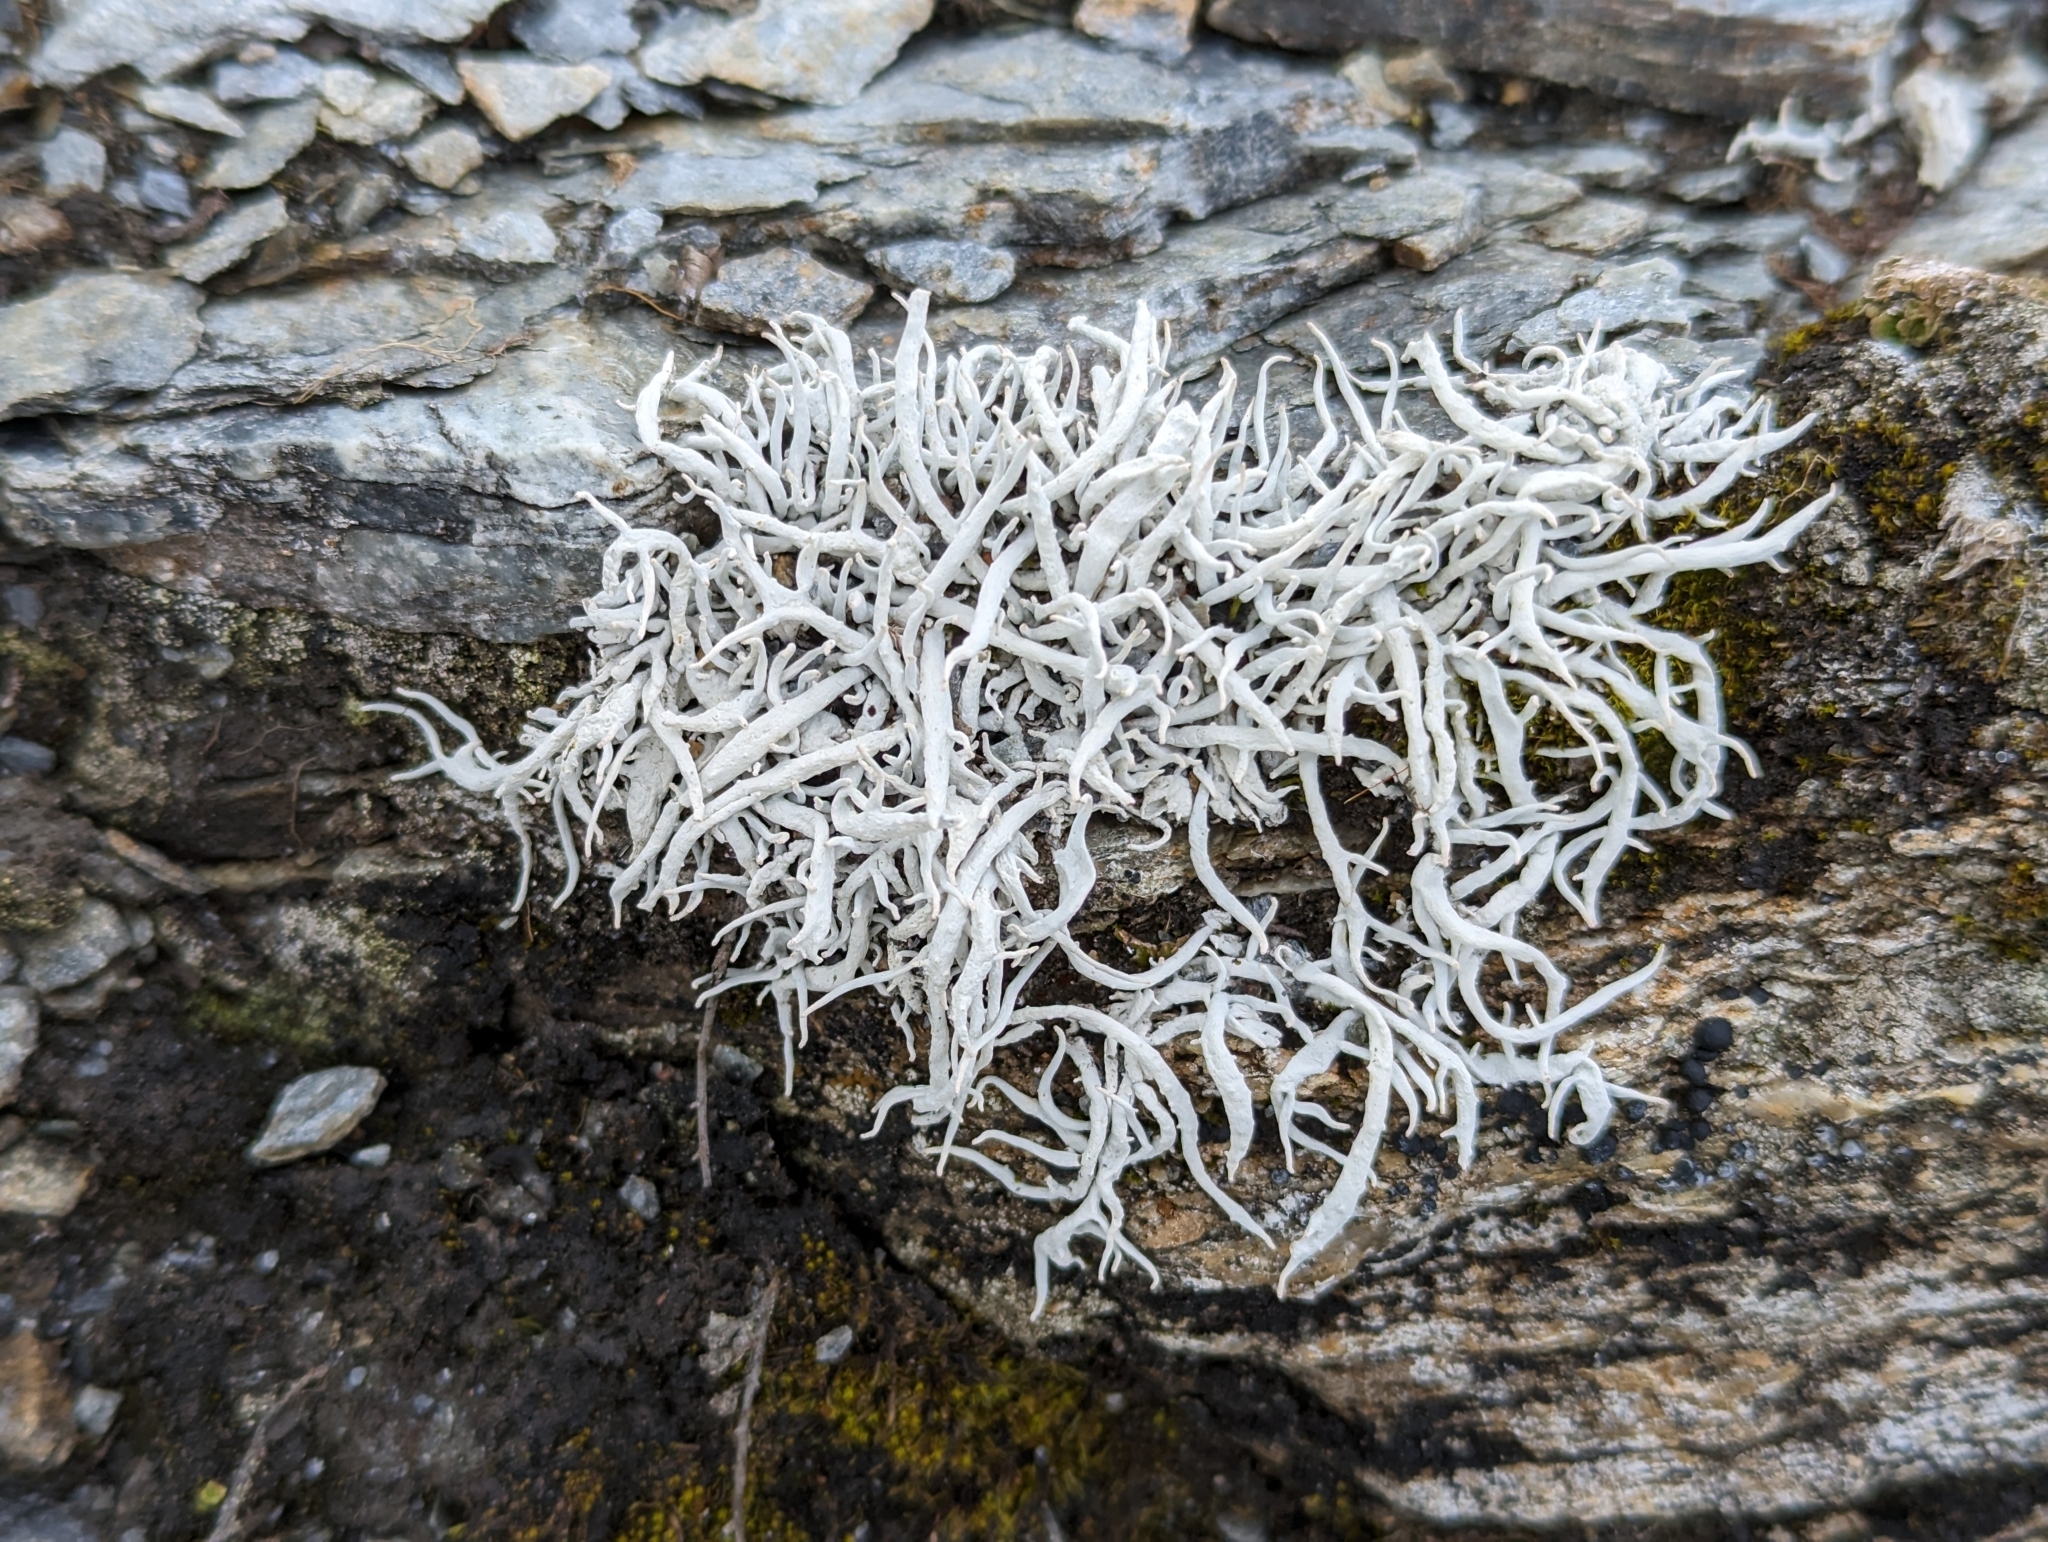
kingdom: Fungi
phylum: Ascomycota
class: Lecanoromycetes
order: Pertusariales
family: Icmadophilaceae
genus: Thamnolia
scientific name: Thamnolia vermicularis
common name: Whiteworm lichen
